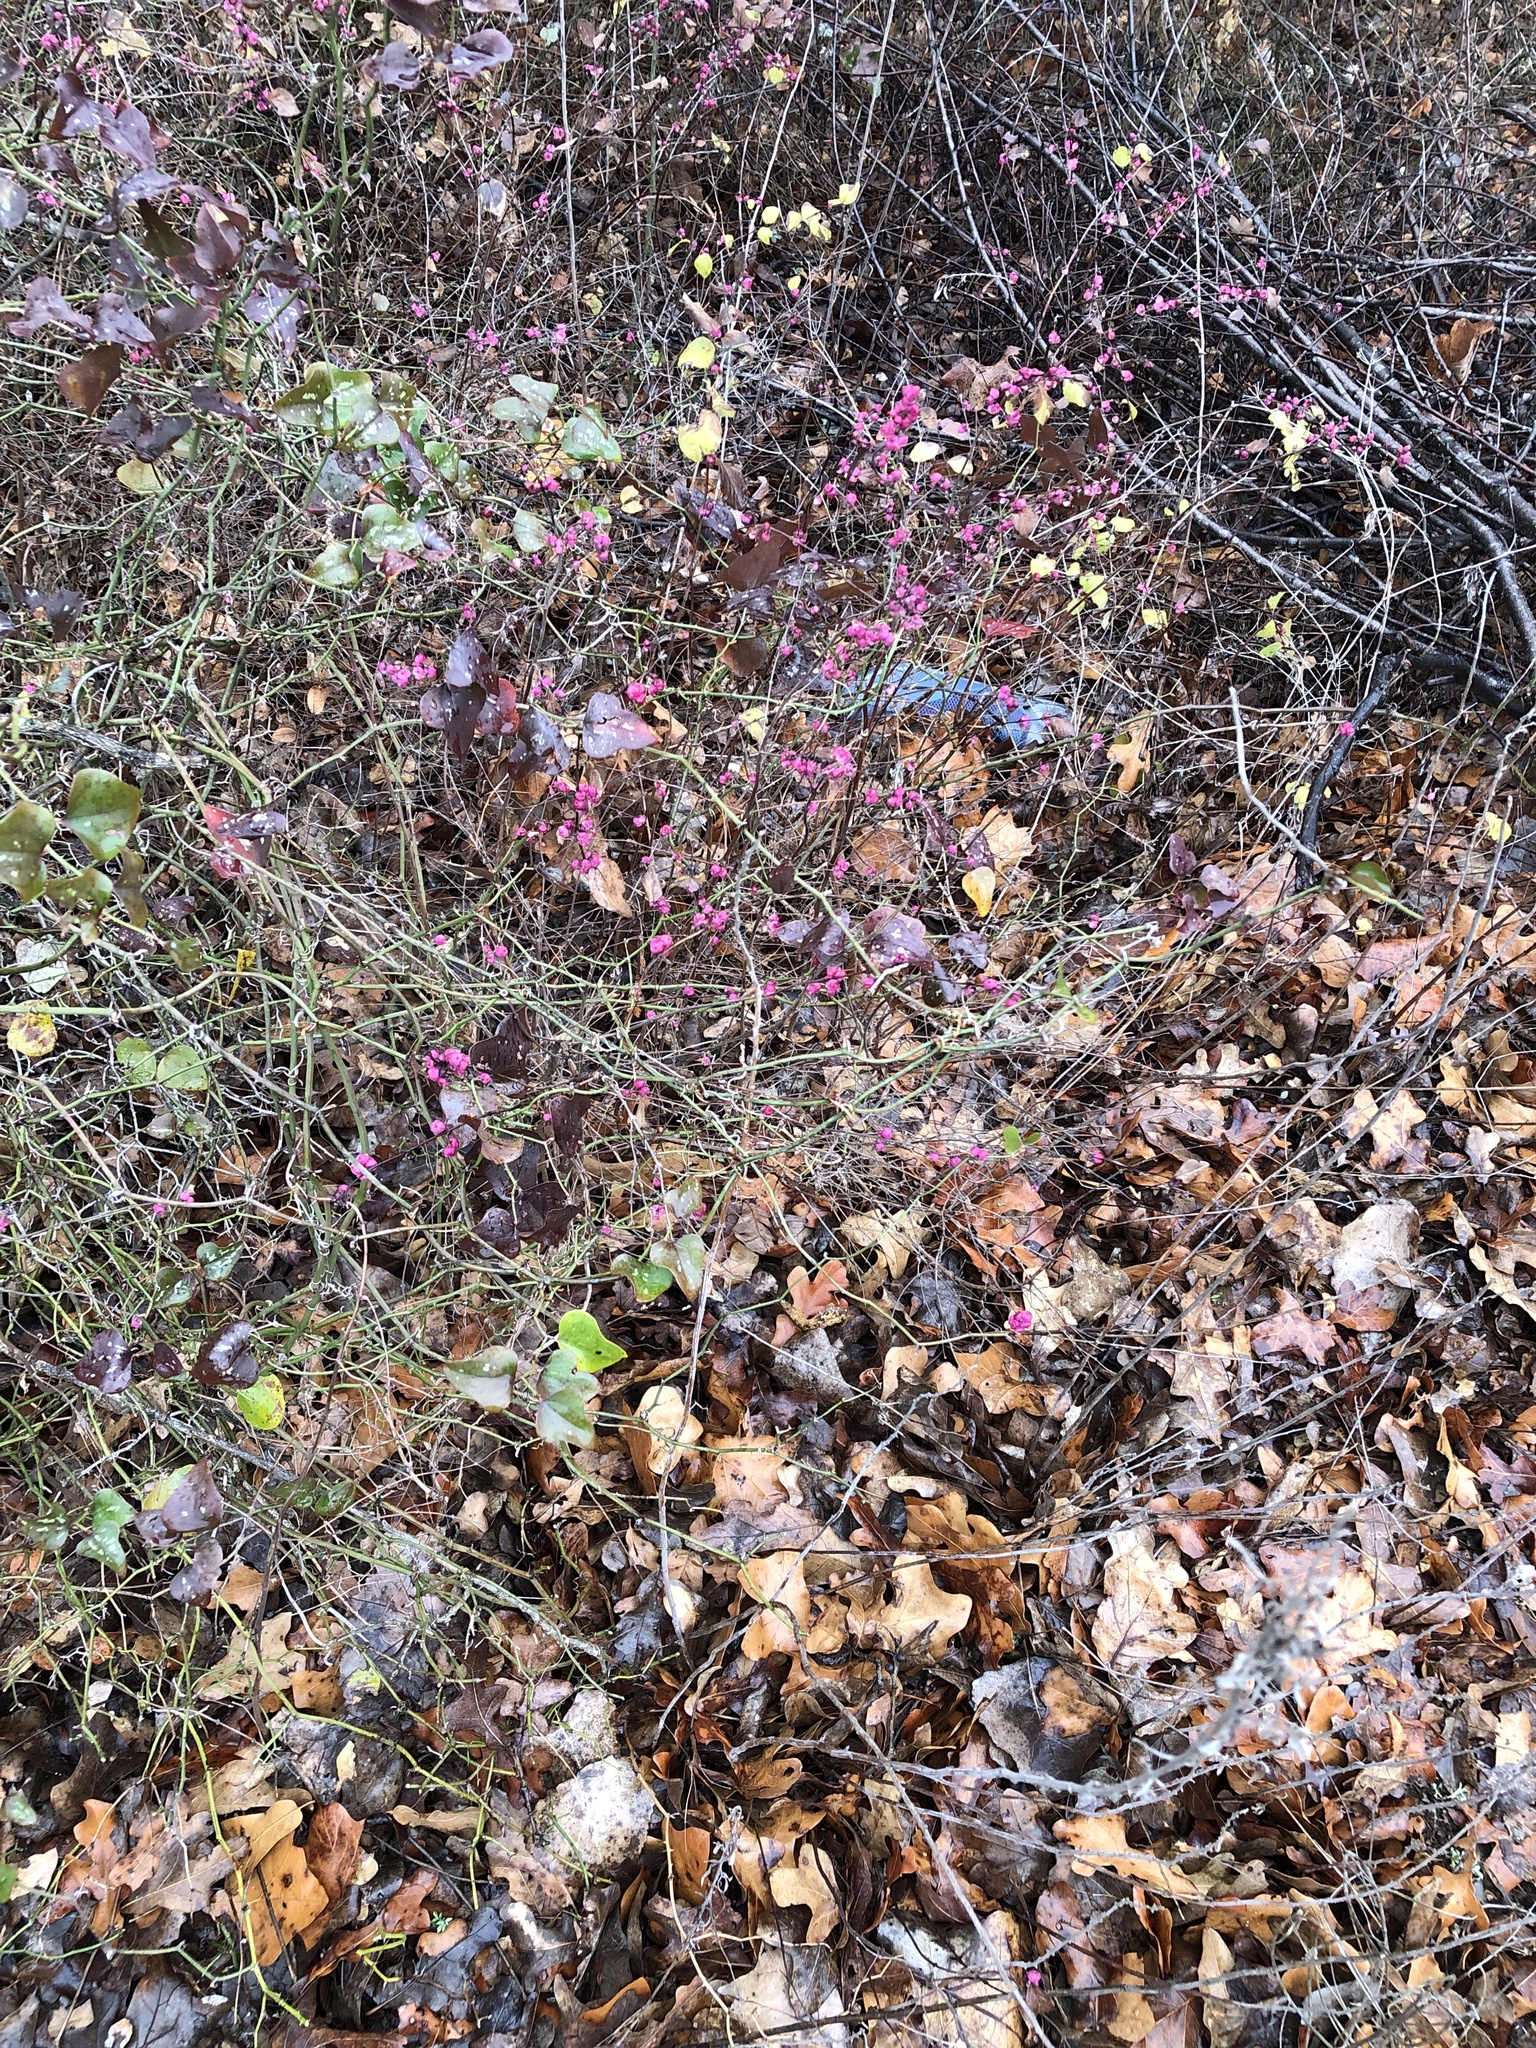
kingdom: Plantae
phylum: Tracheophyta
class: Magnoliopsida
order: Dipsacales
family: Caprifoliaceae
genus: Symphoricarpos
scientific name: Symphoricarpos orbiculatus
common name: Coralberry
